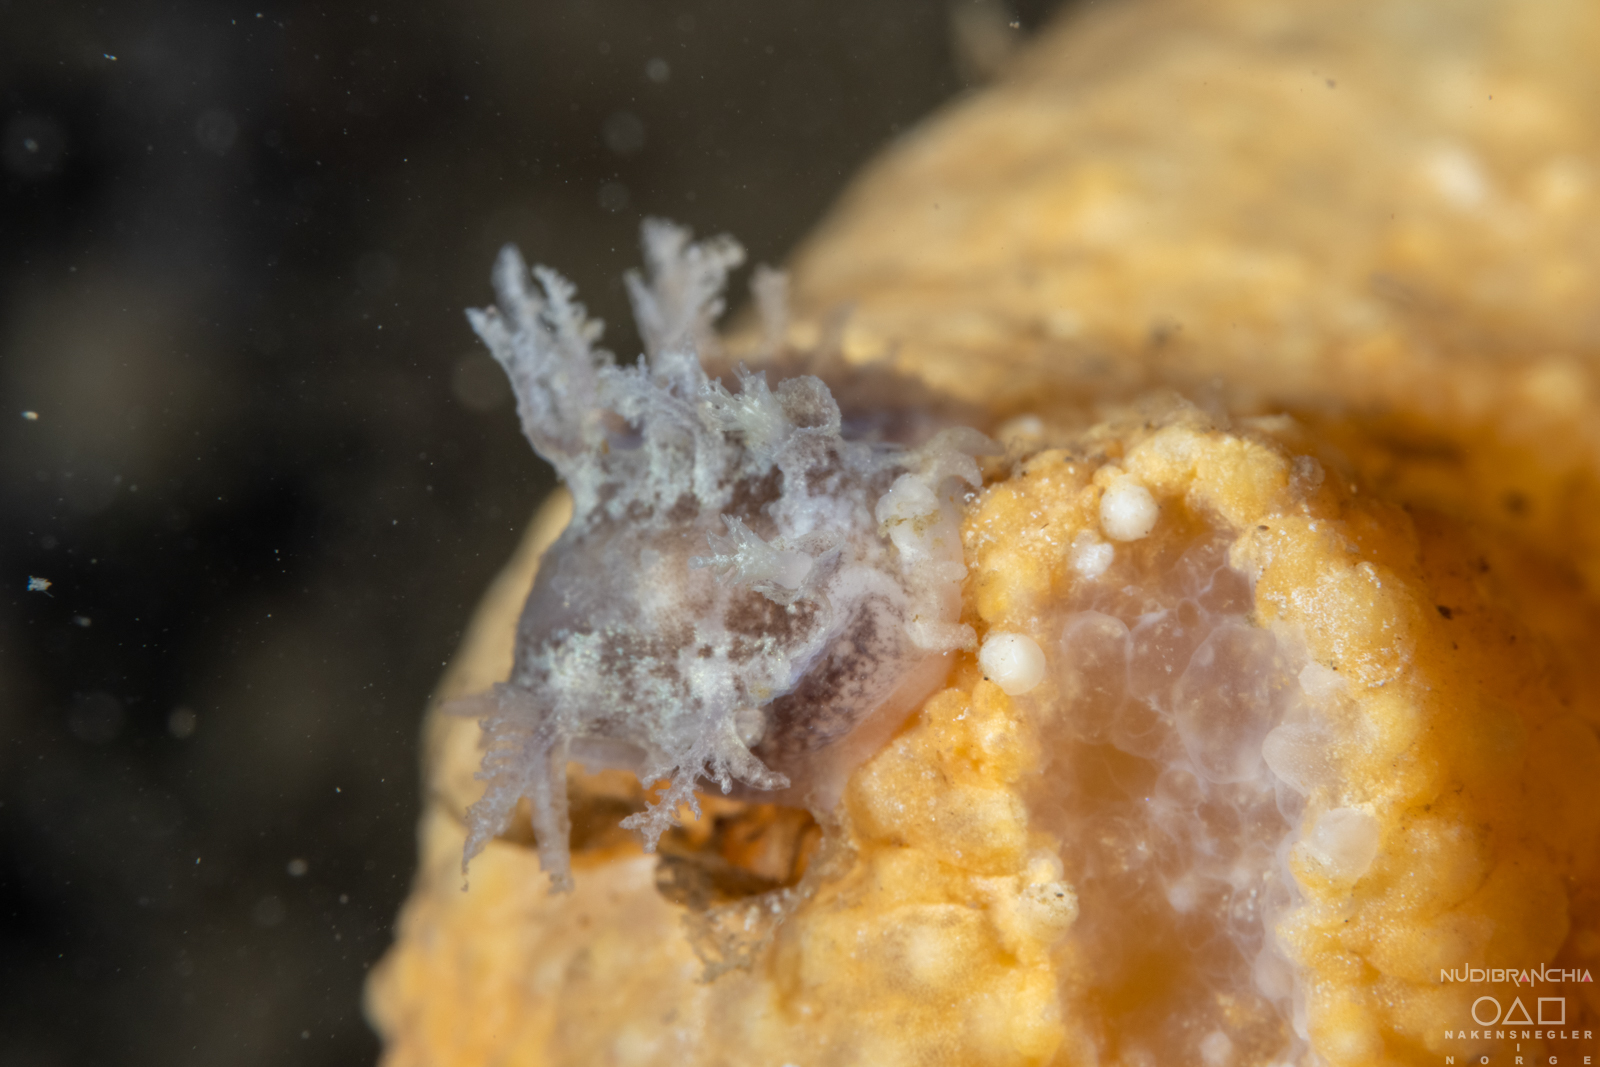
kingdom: Animalia
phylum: Mollusca
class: Gastropoda
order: Nudibranchia
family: Tritoniidae
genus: Duvaucelia
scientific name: Duvaucelia plebeia
